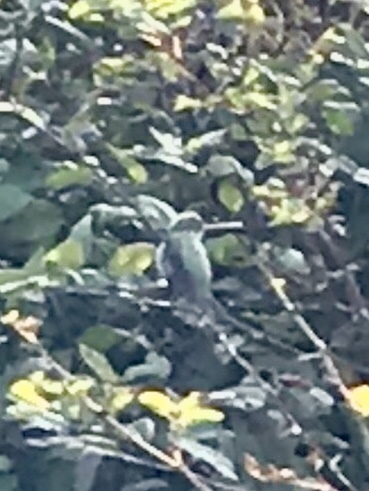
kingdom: Animalia
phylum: Chordata
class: Aves
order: Apodiformes
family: Trochilidae
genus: Calypte
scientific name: Calypte anna
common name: Anna's hummingbird
